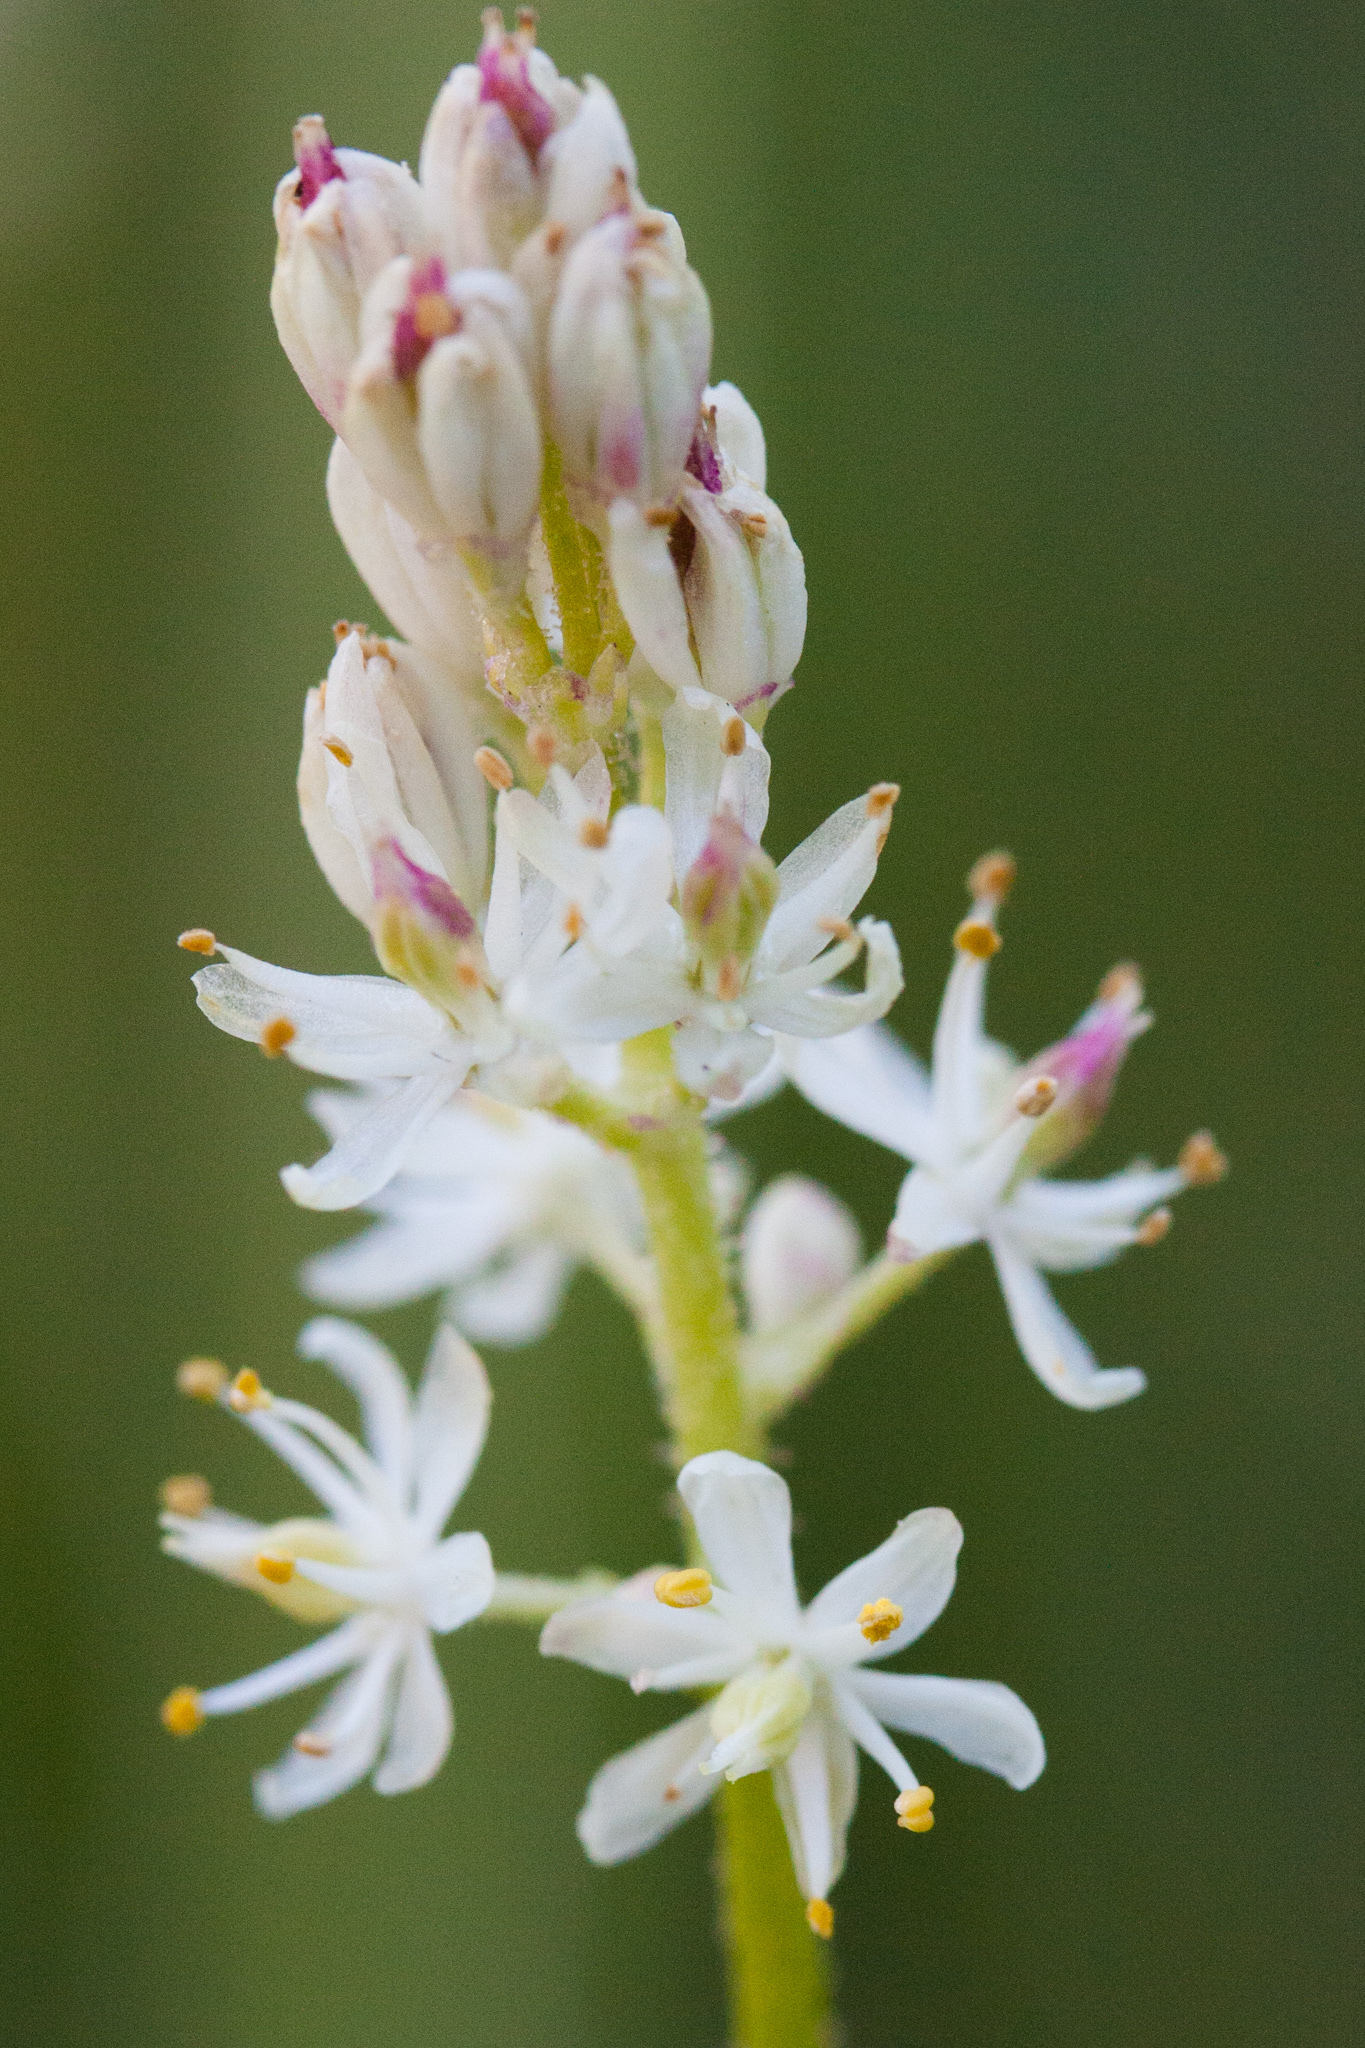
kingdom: Plantae
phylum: Tracheophyta
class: Liliopsida
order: Alismatales
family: Tofieldiaceae
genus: Triantha
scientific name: Triantha occidentalis
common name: Western false asphodel
